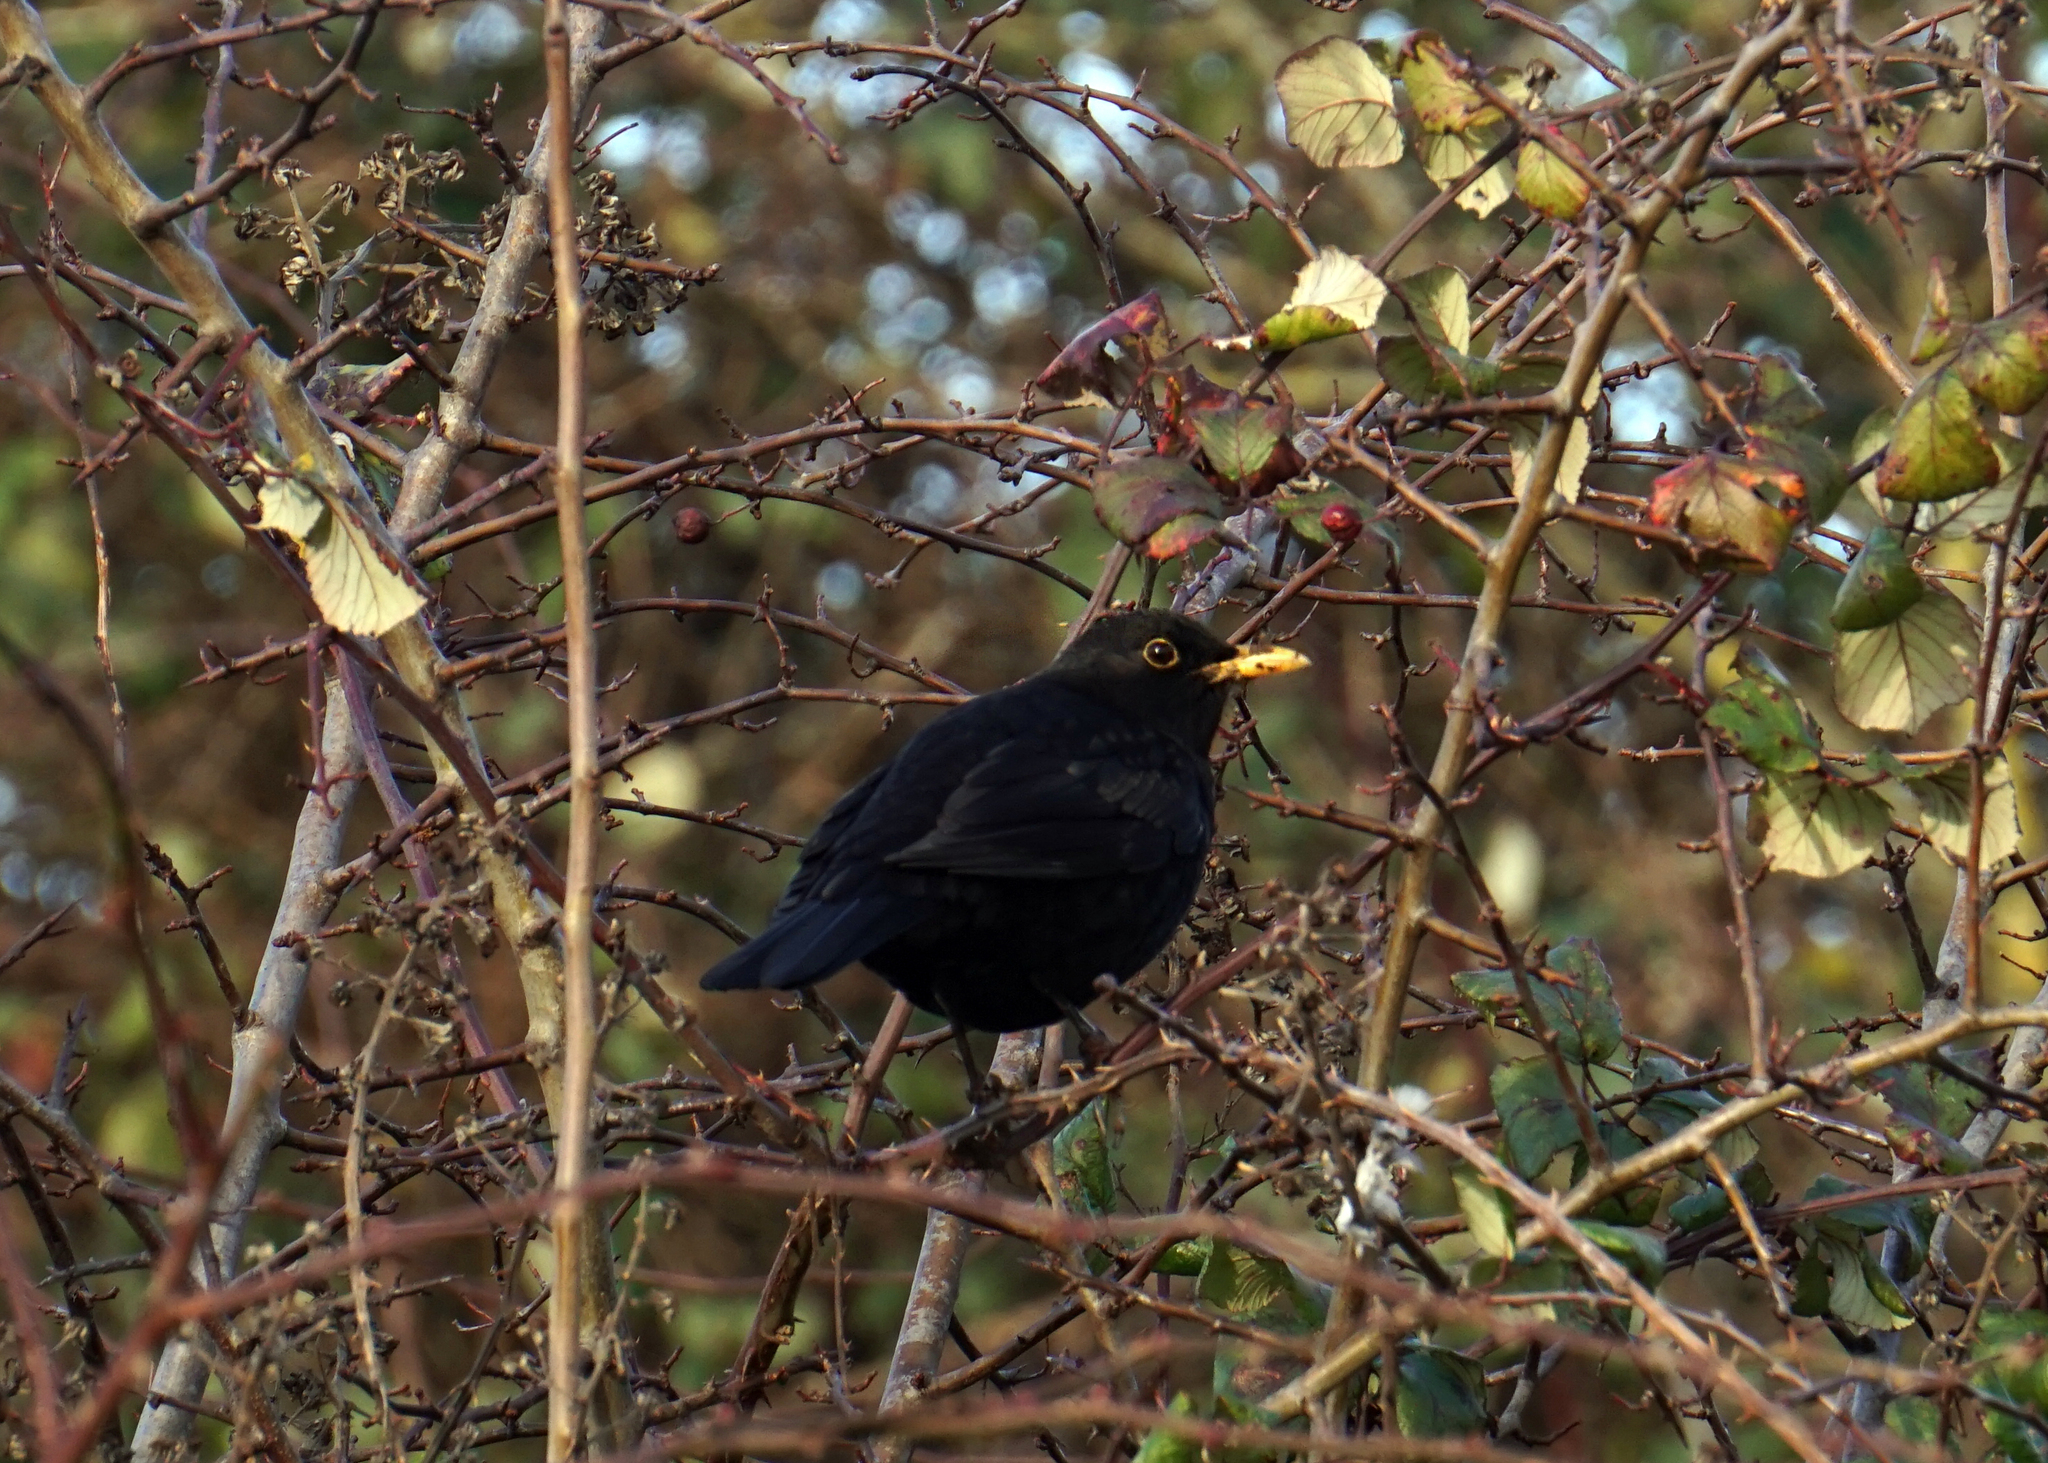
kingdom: Animalia
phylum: Chordata
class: Aves
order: Passeriformes
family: Turdidae
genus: Turdus
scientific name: Turdus merula
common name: Common blackbird
